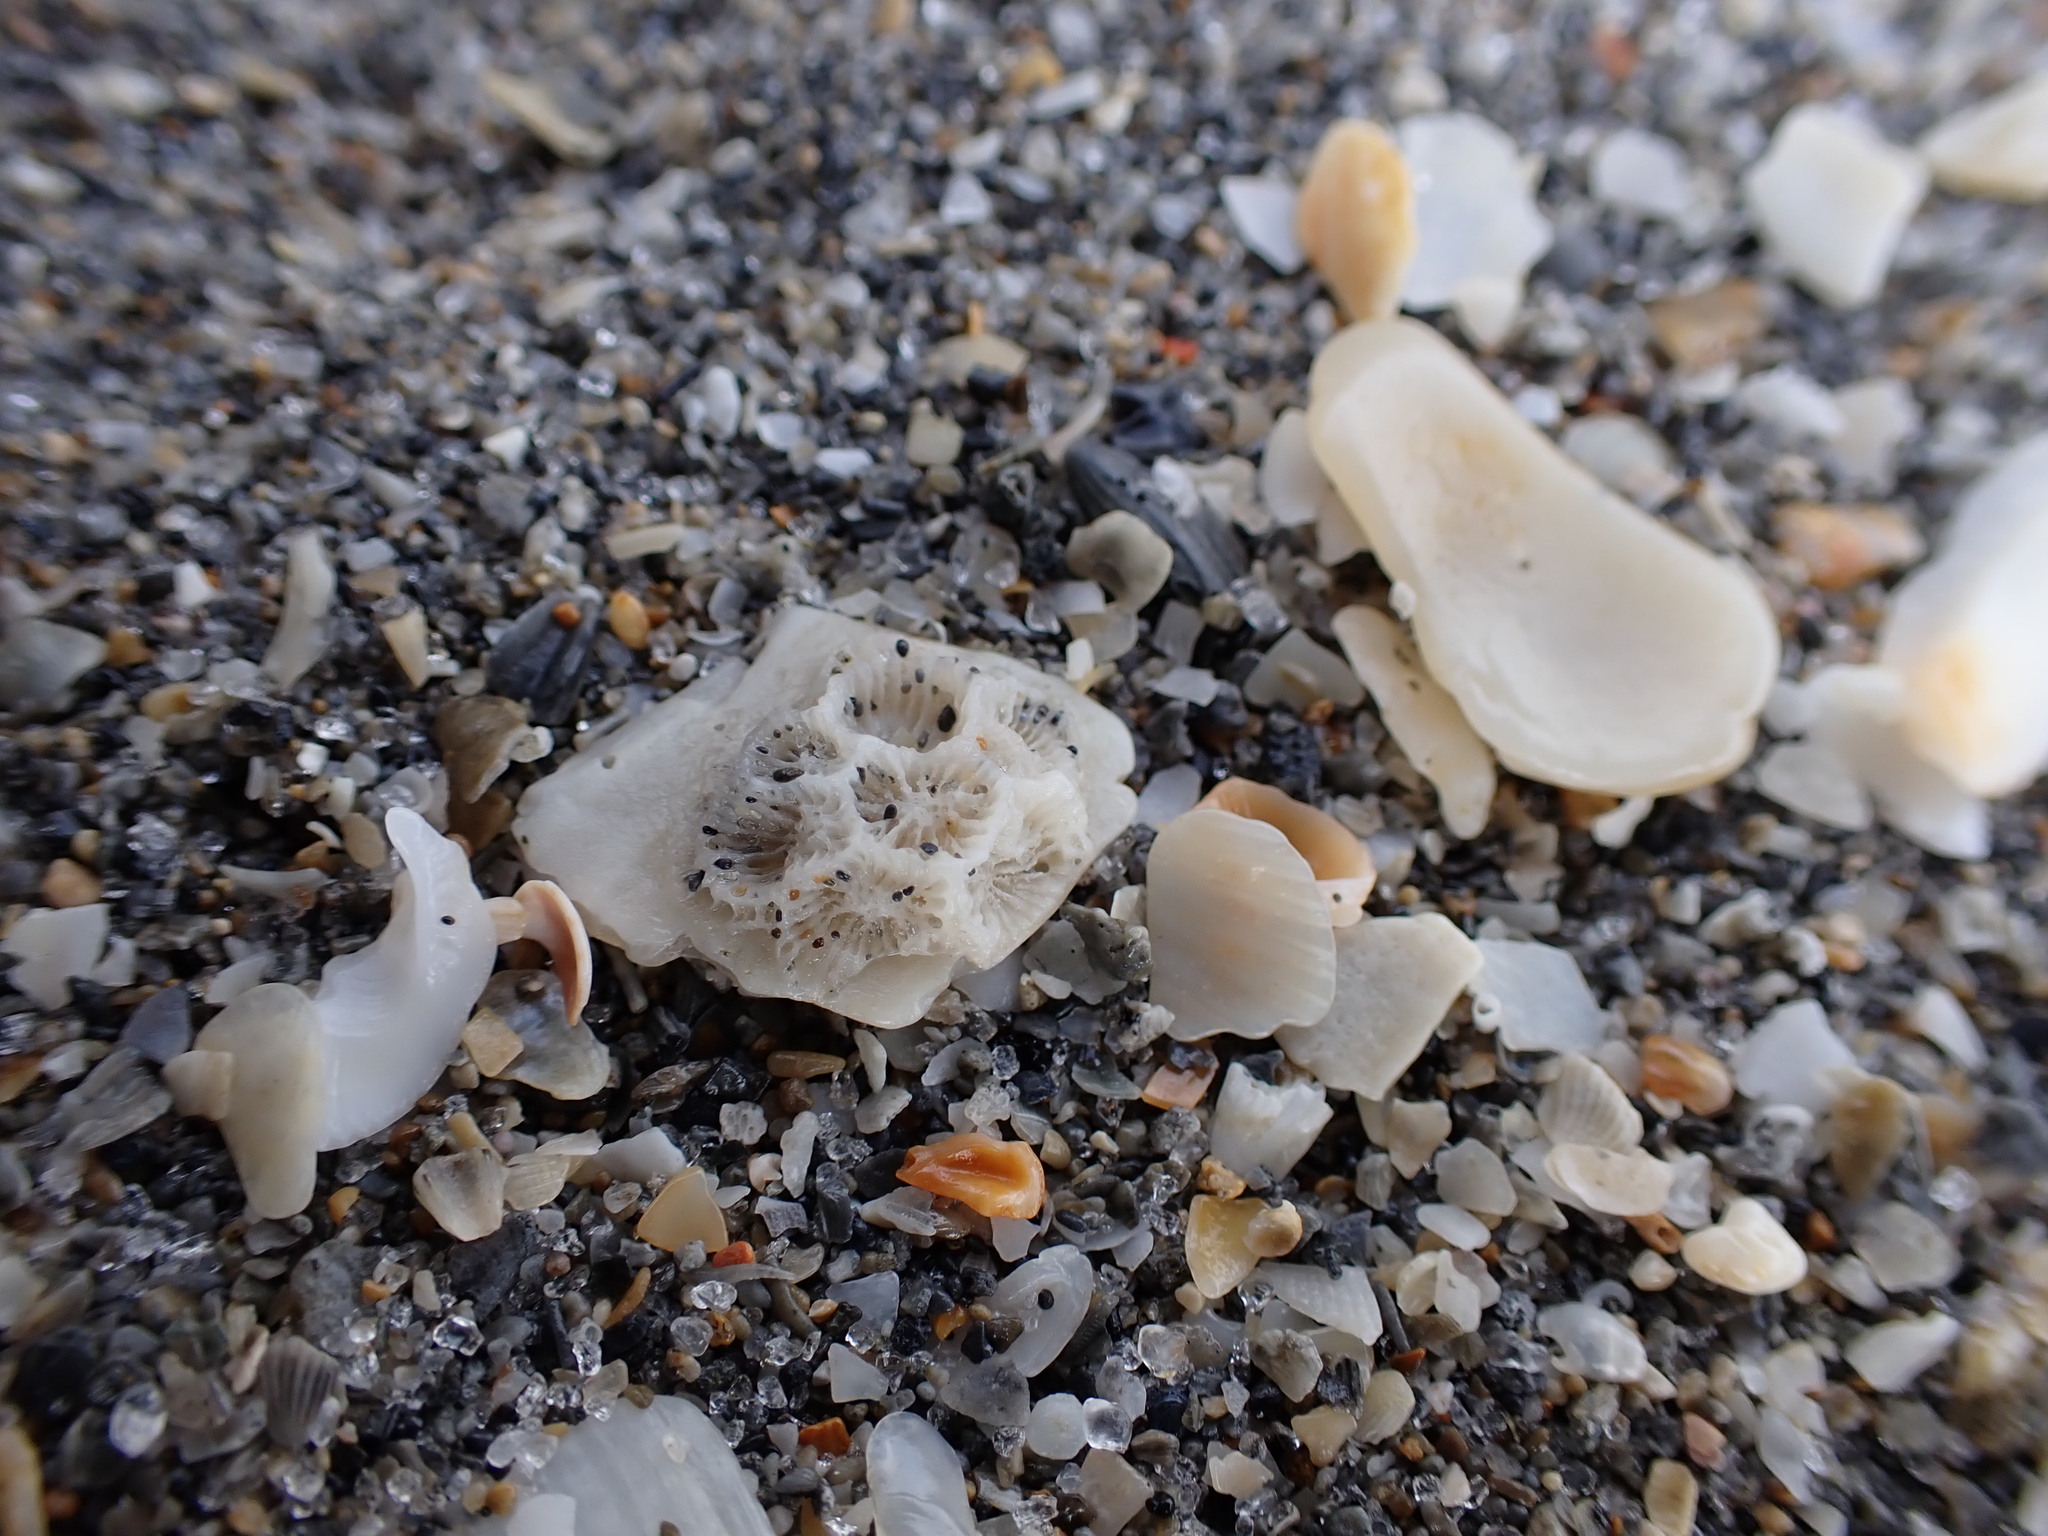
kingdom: Animalia
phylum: Cnidaria
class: Anthozoa
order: Scleractinia
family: Astrangiidae
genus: Astrangia
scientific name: Astrangia poculata
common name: Northern star coral
